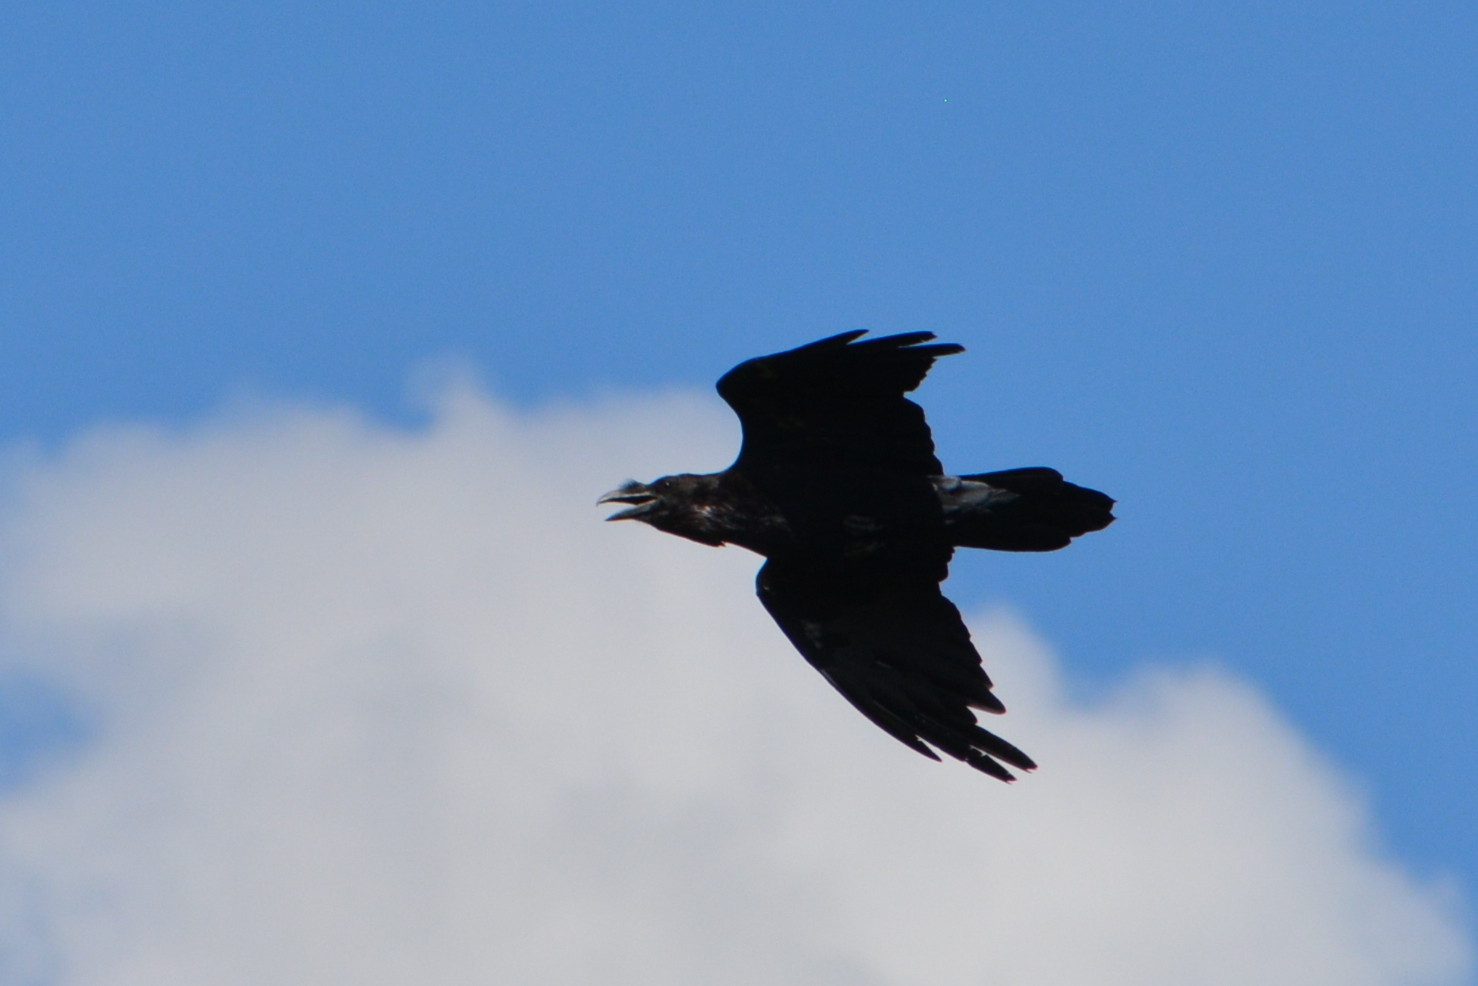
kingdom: Animalia
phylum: Chordata
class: Aves
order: Passeriformes
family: Corvidae
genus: Corvus
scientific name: Corvus corax
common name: Common raven
